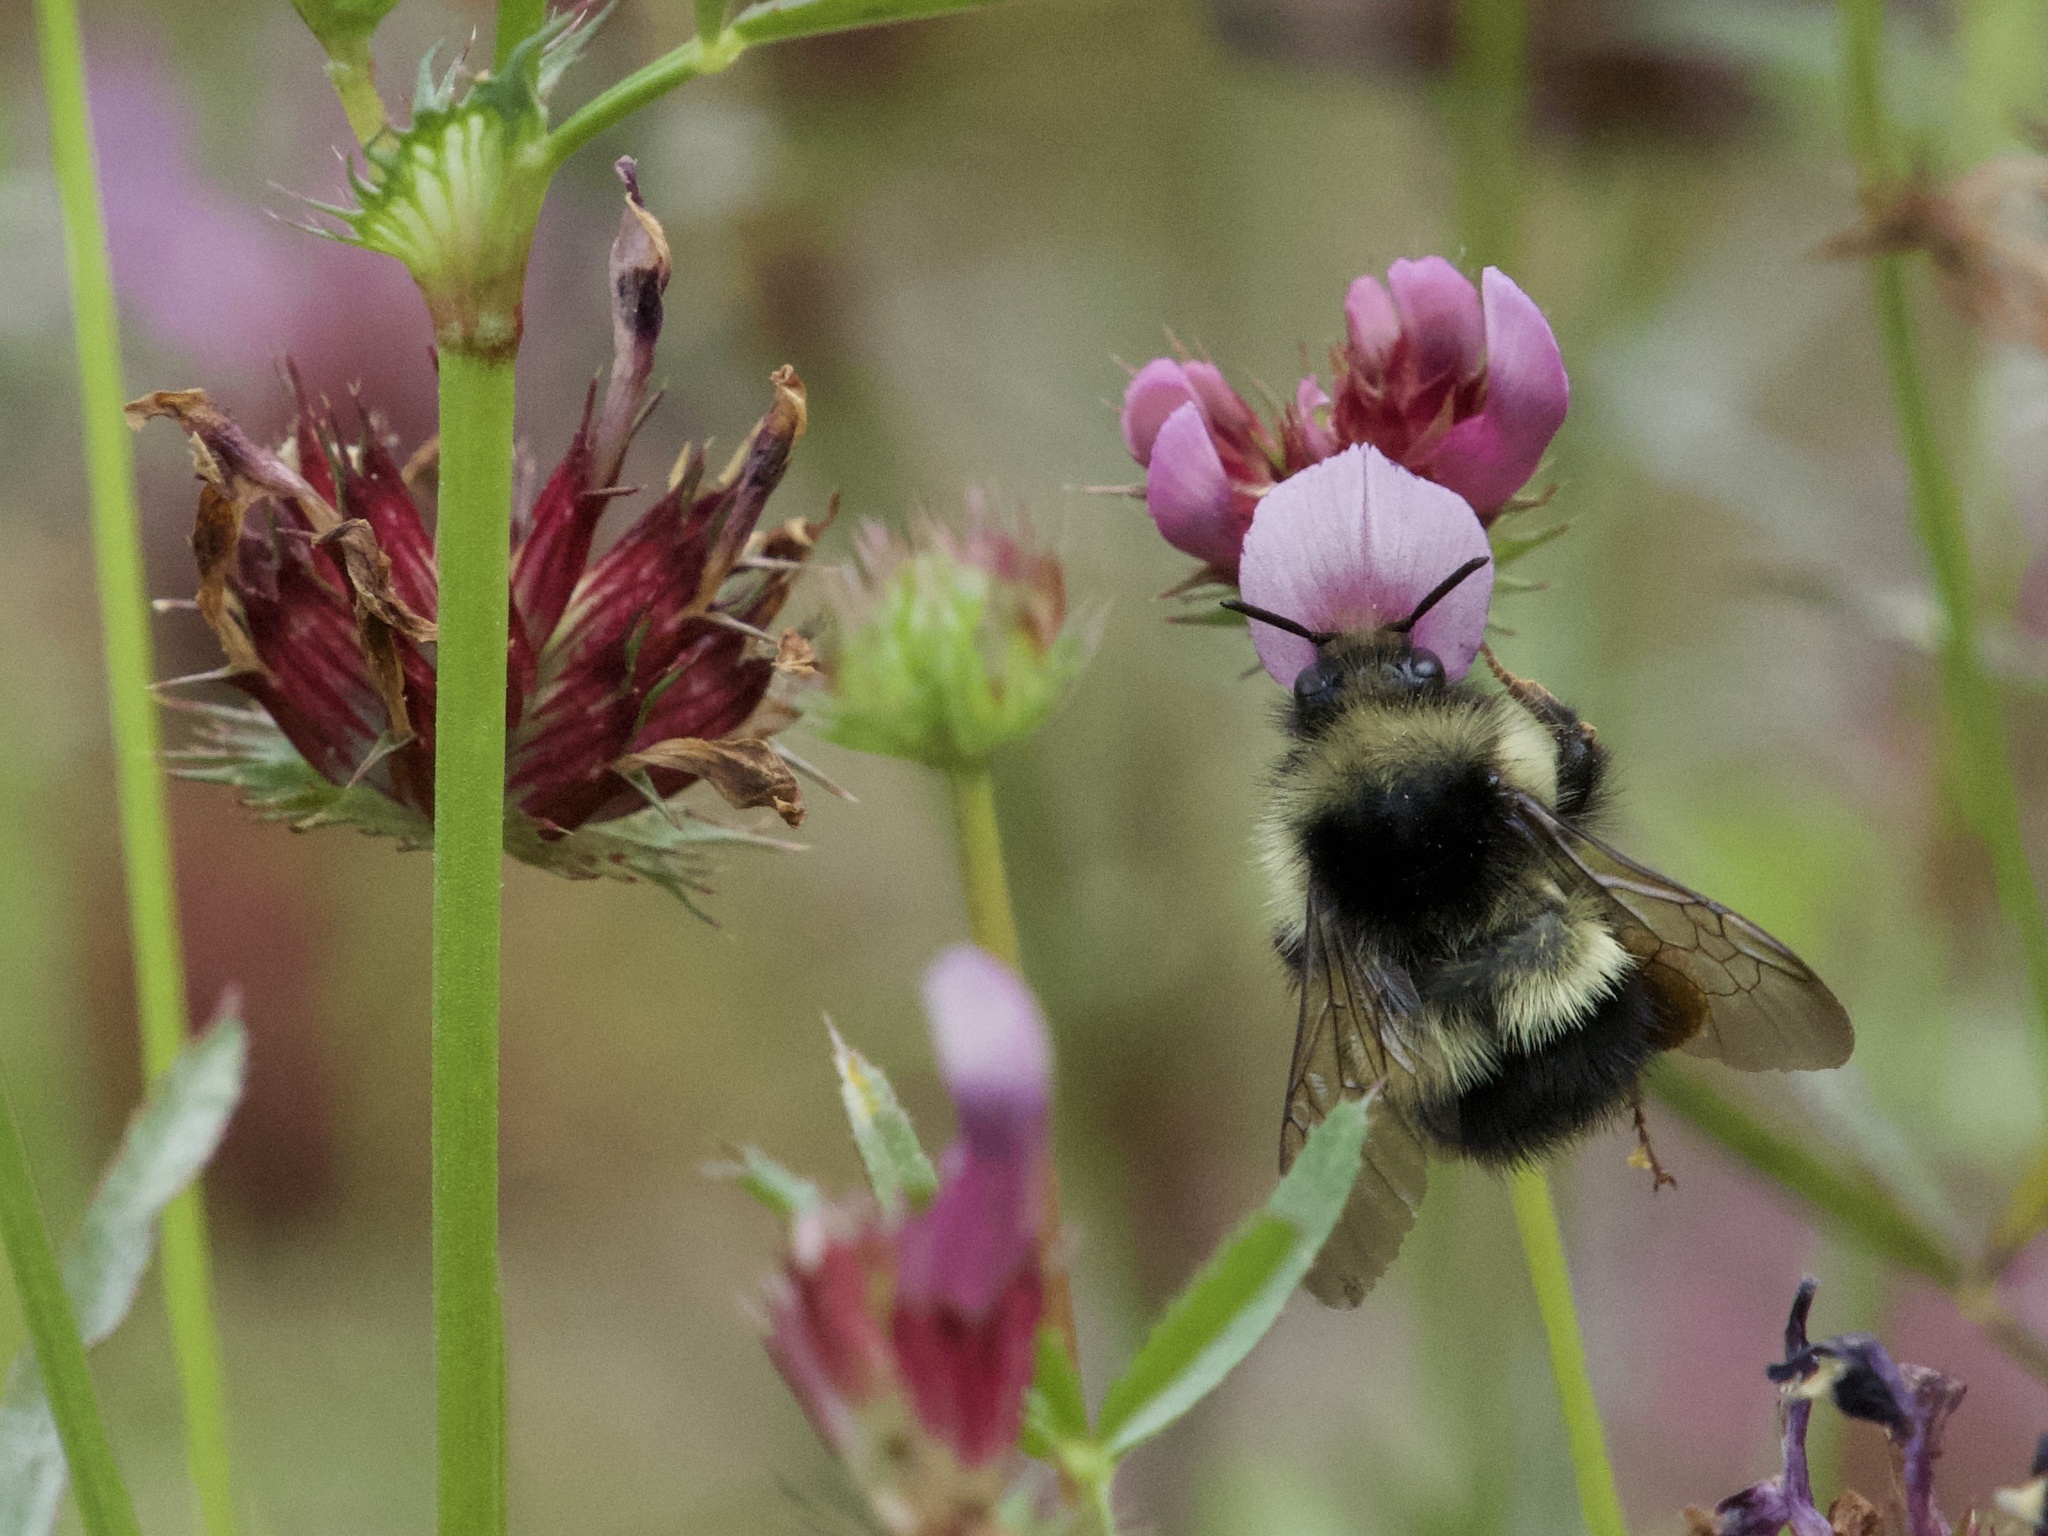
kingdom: Animalia
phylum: Arthropoda
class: Insecta
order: Hymenoptera
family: Apidae
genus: Bombus
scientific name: Bombus flavifrons
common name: Yellow head bumble bee
